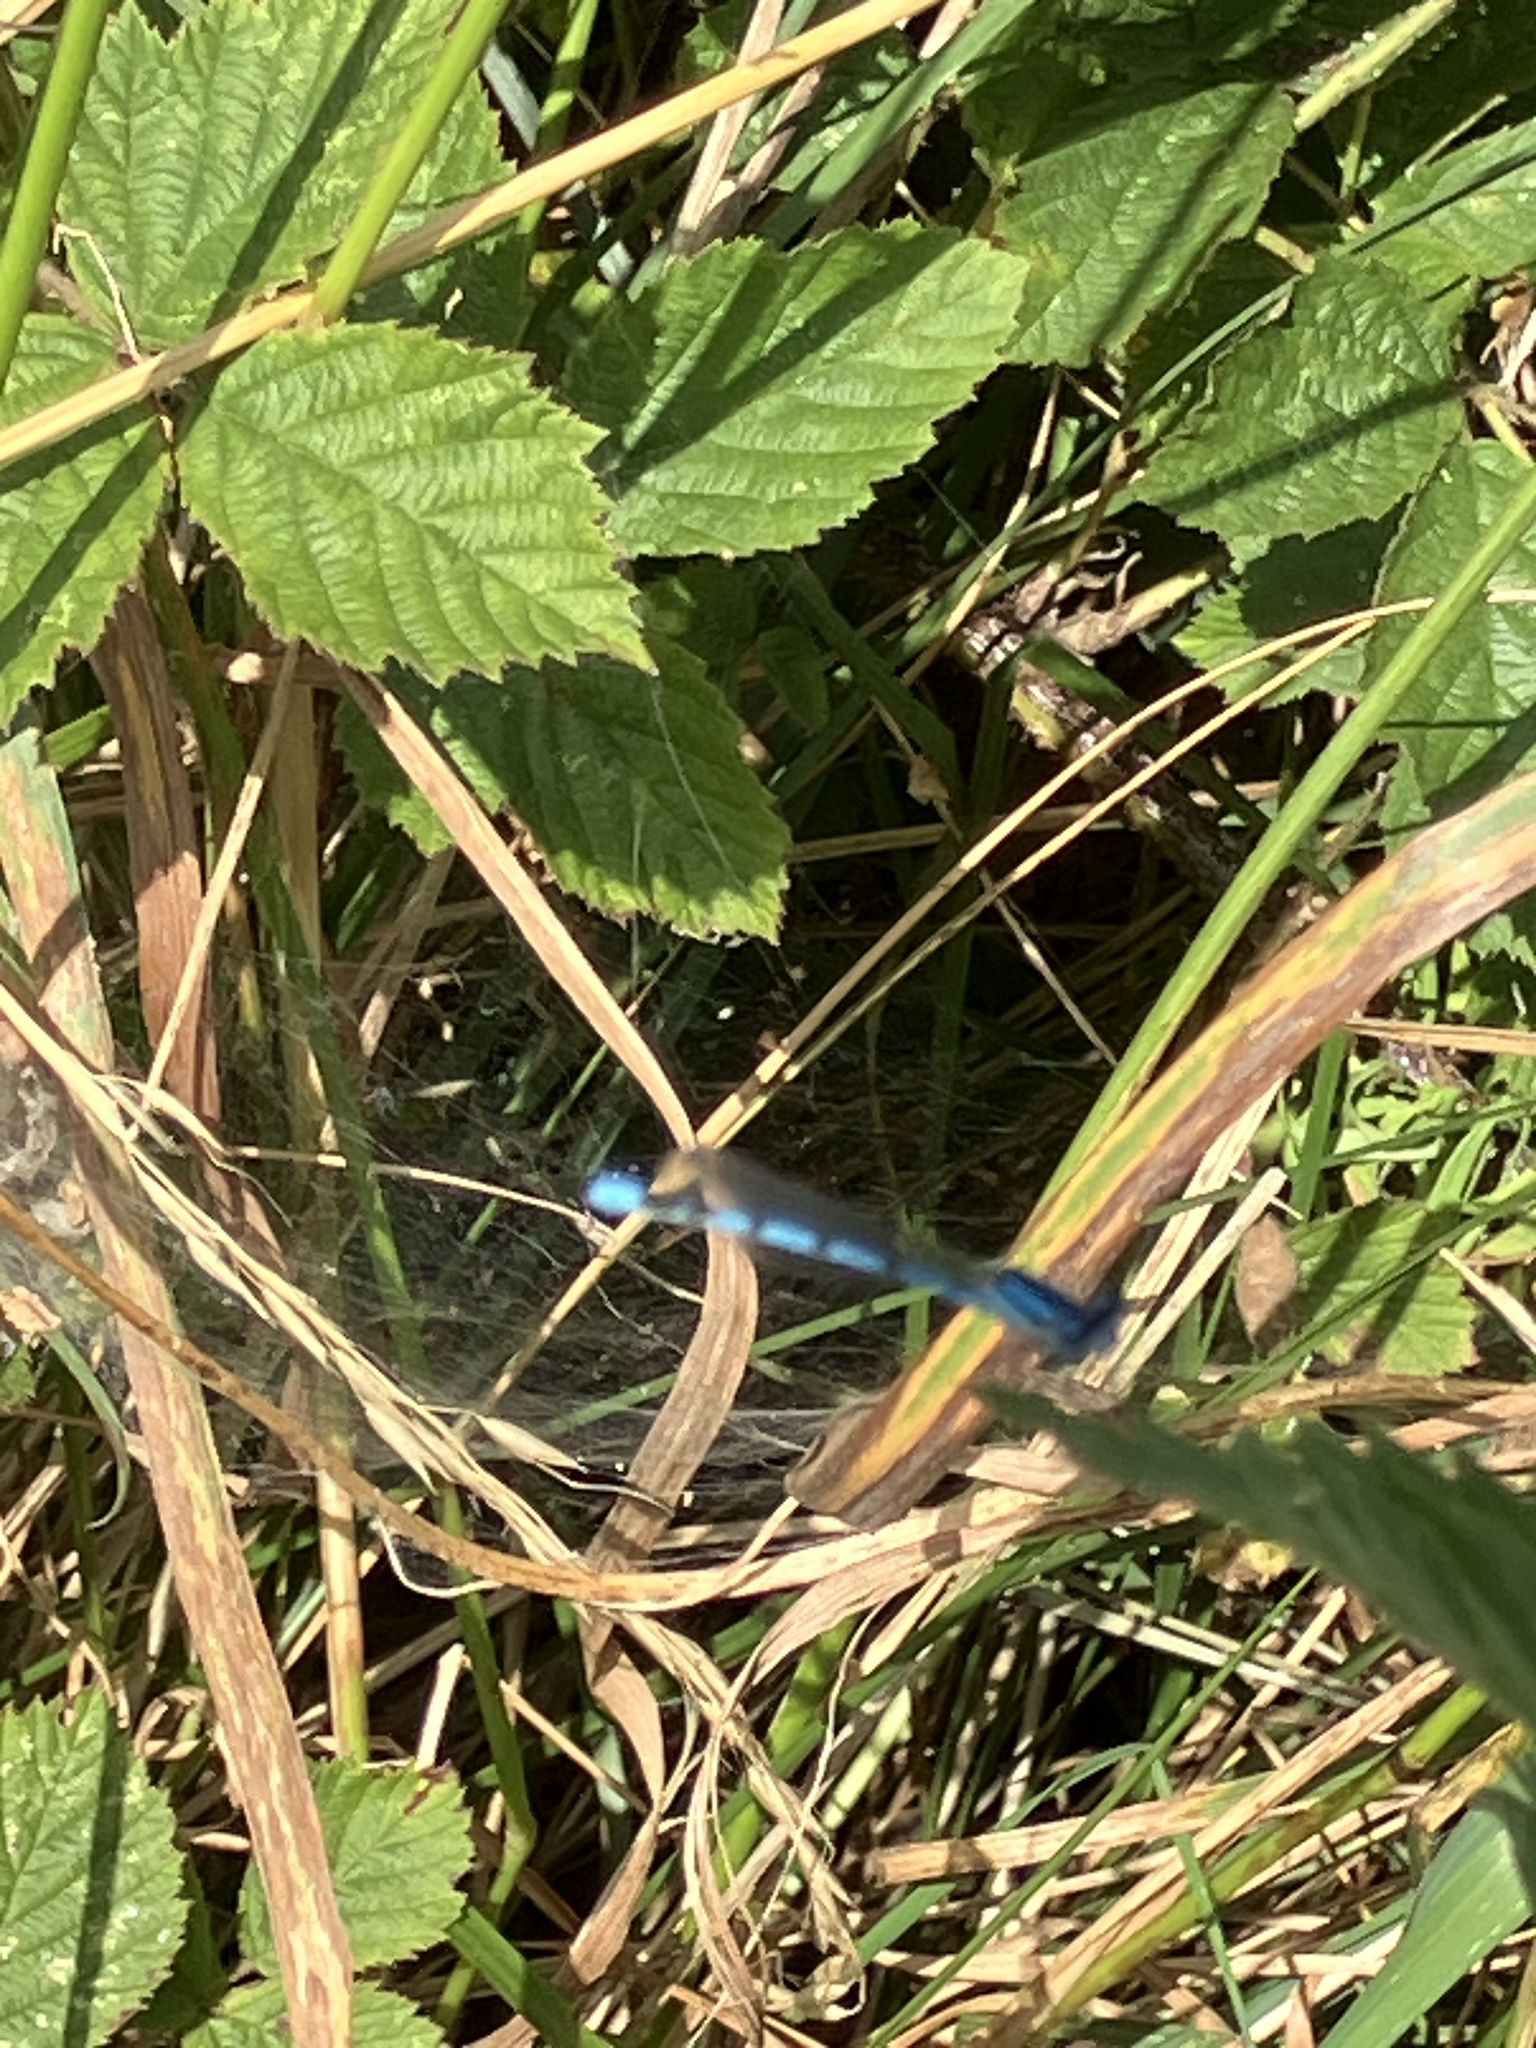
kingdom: Animalia
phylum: Arthropoda
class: Insecta
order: Odonata
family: Coenagrionidae
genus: Enallagma
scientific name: Enallagma cyathigerum
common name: Common blue damselfly
